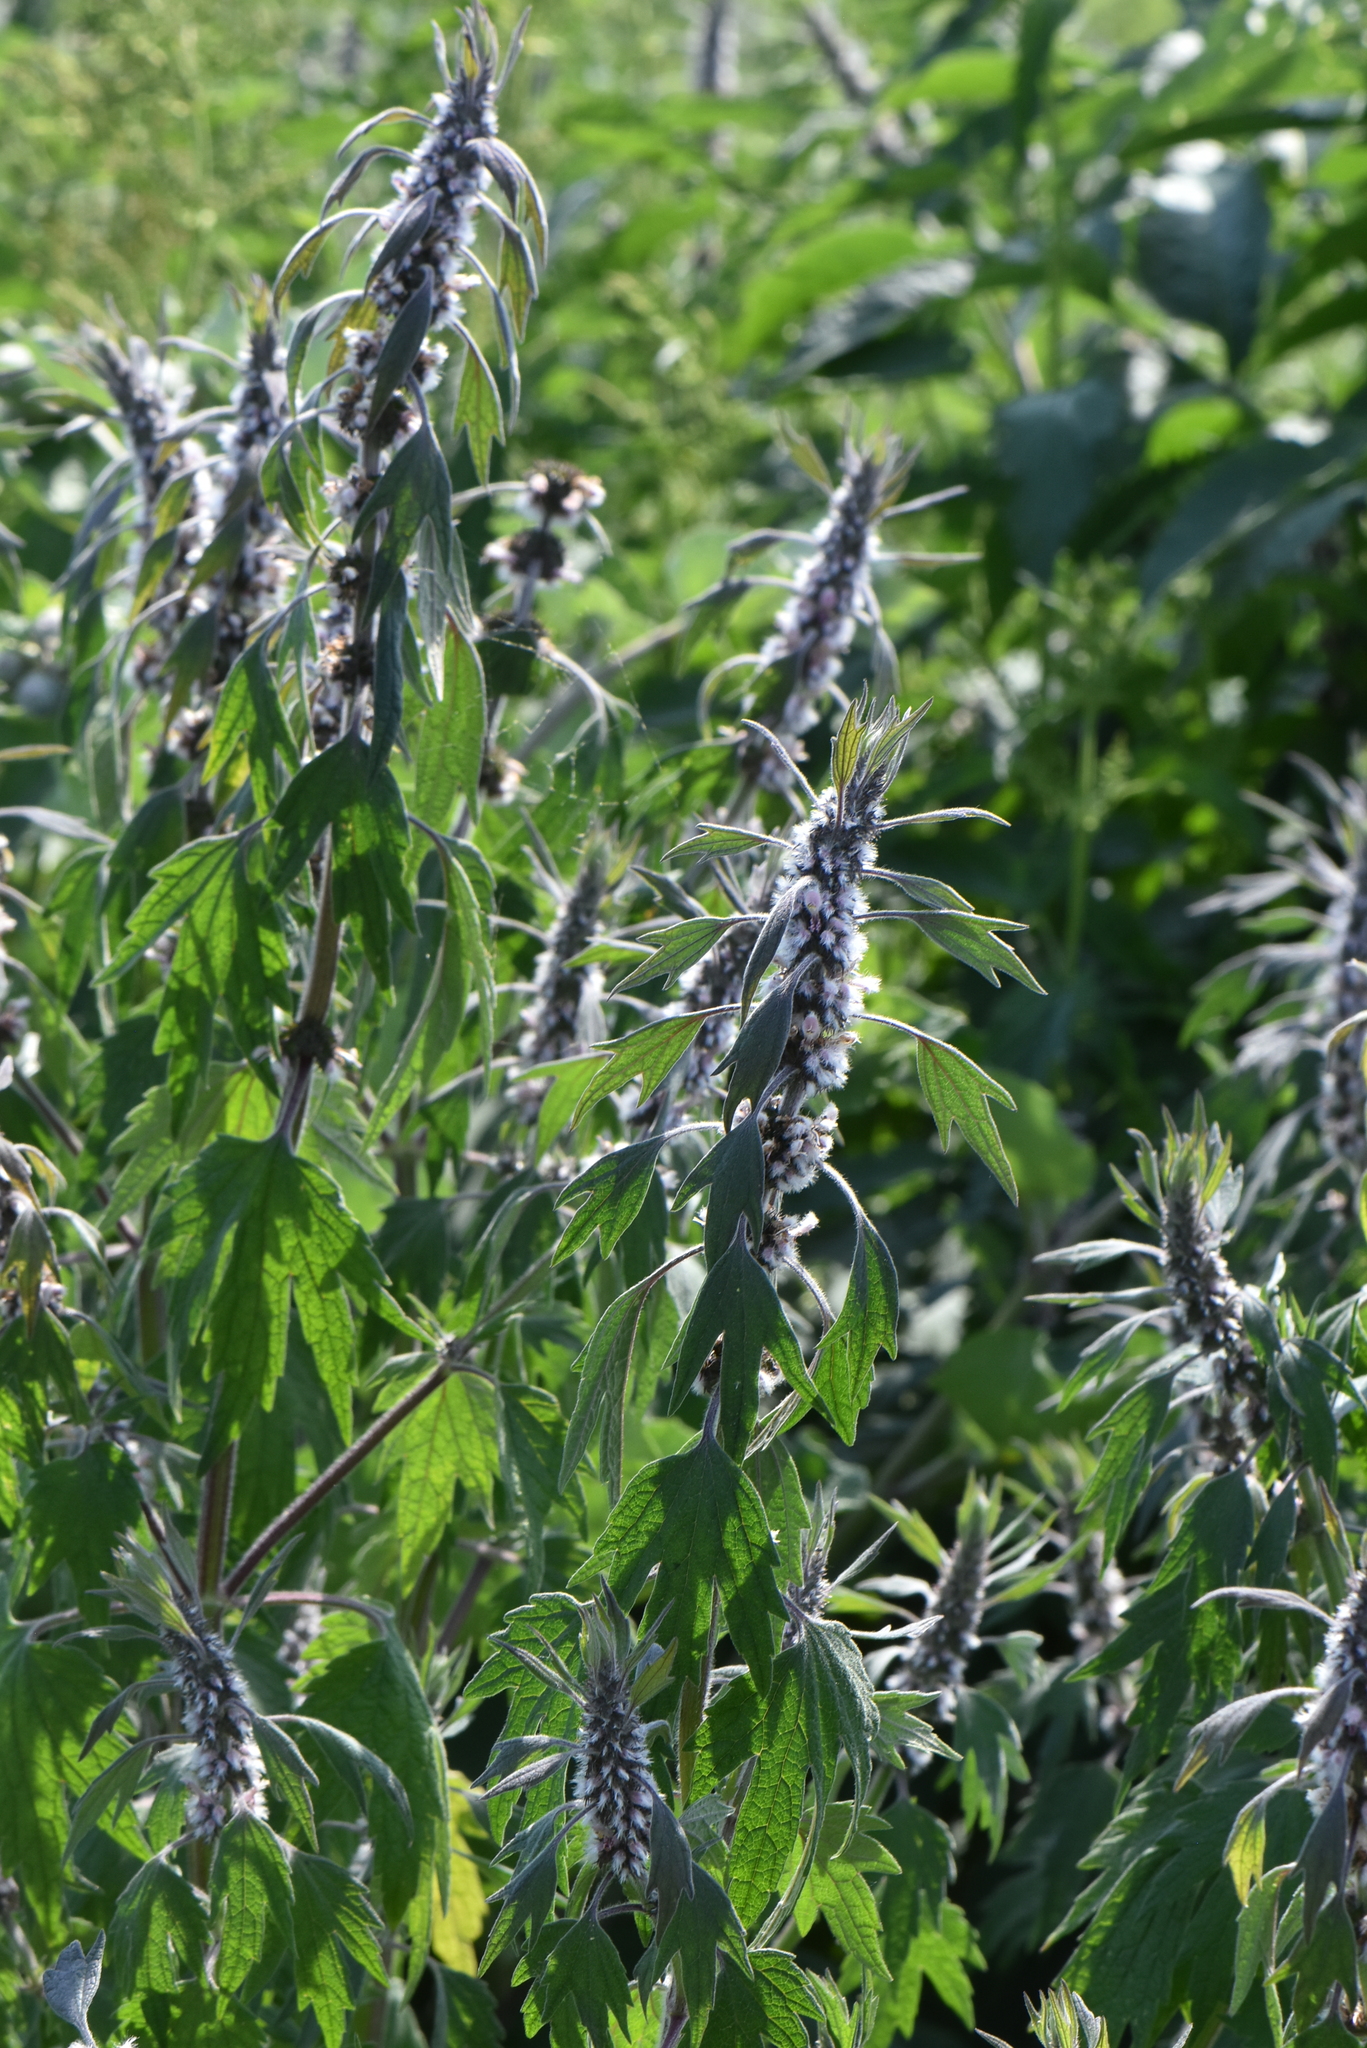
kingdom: Plantae
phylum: Tracheophyta
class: Magnoliopsida
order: Lamiales
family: Lamiaceae
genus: Leonurus
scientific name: Leonurus quinquelobatus
